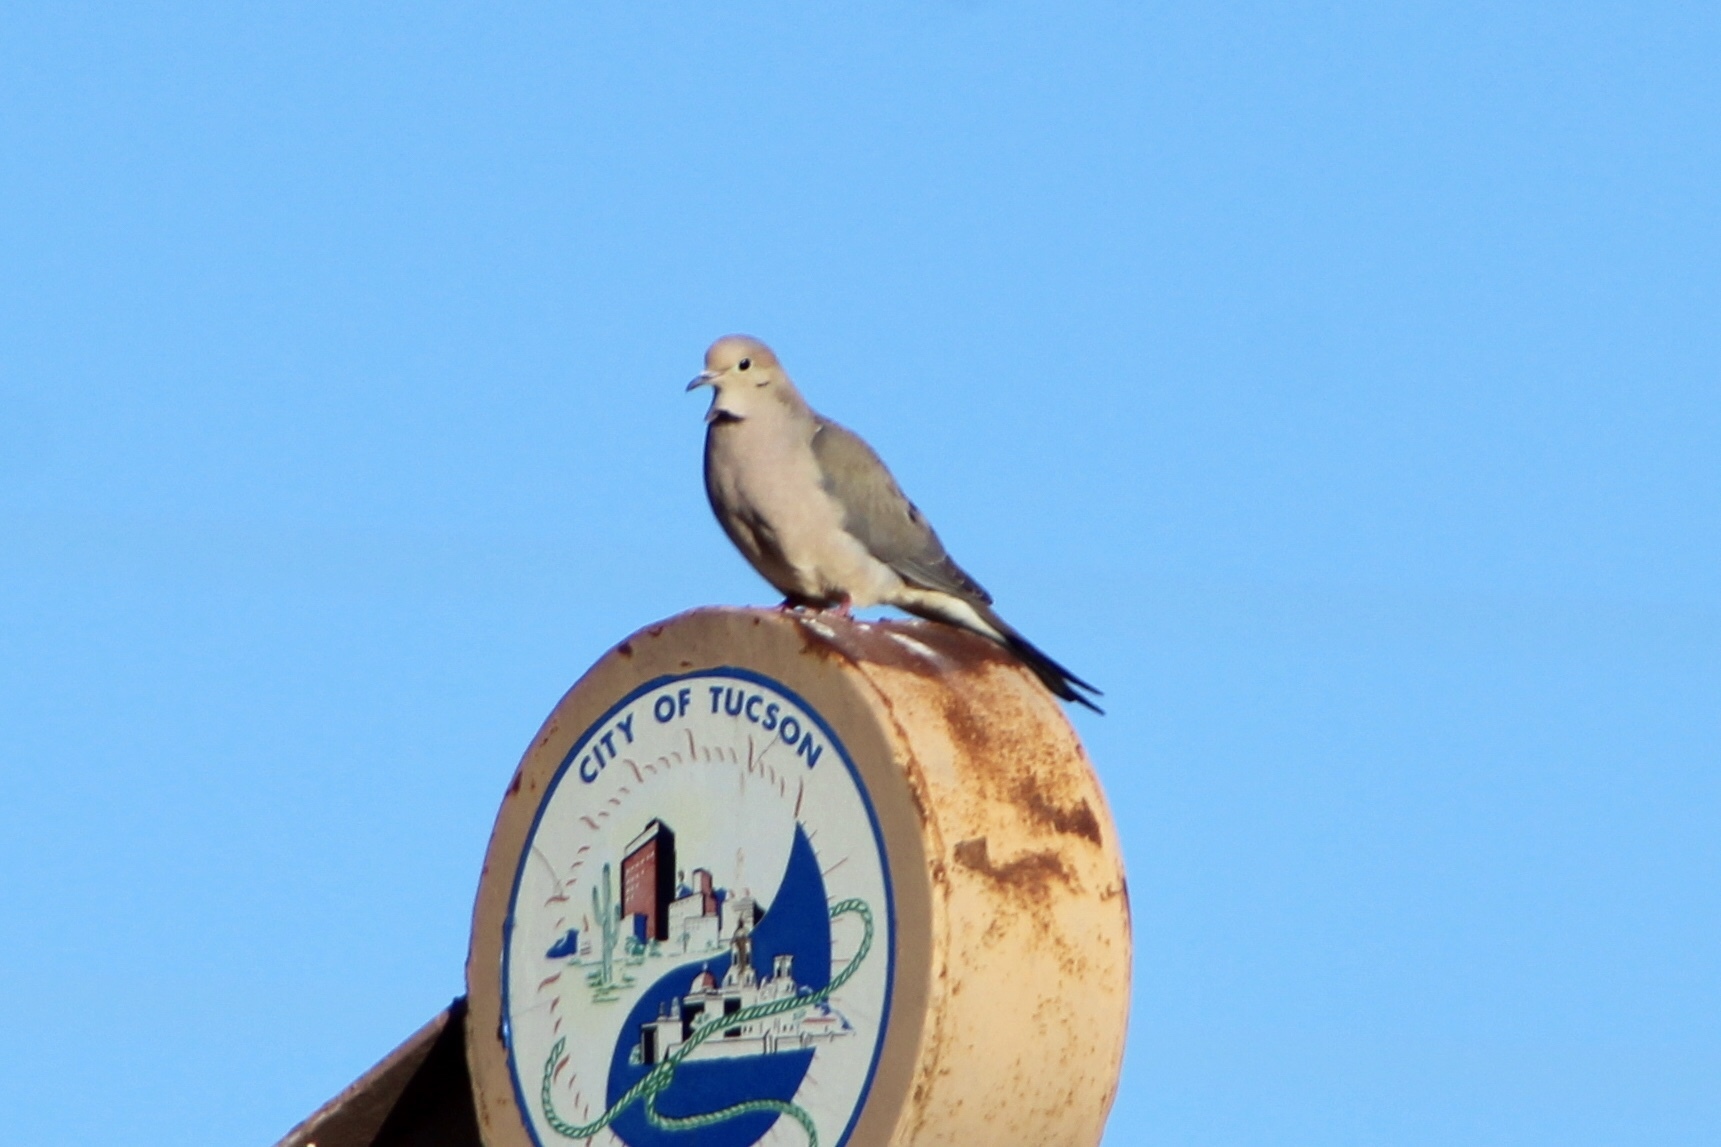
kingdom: Animalia
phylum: Chordata
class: Aves
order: Columbiformes
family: Columbidae
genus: Zenaida
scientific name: Zenaida macroura
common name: Mourning dove
